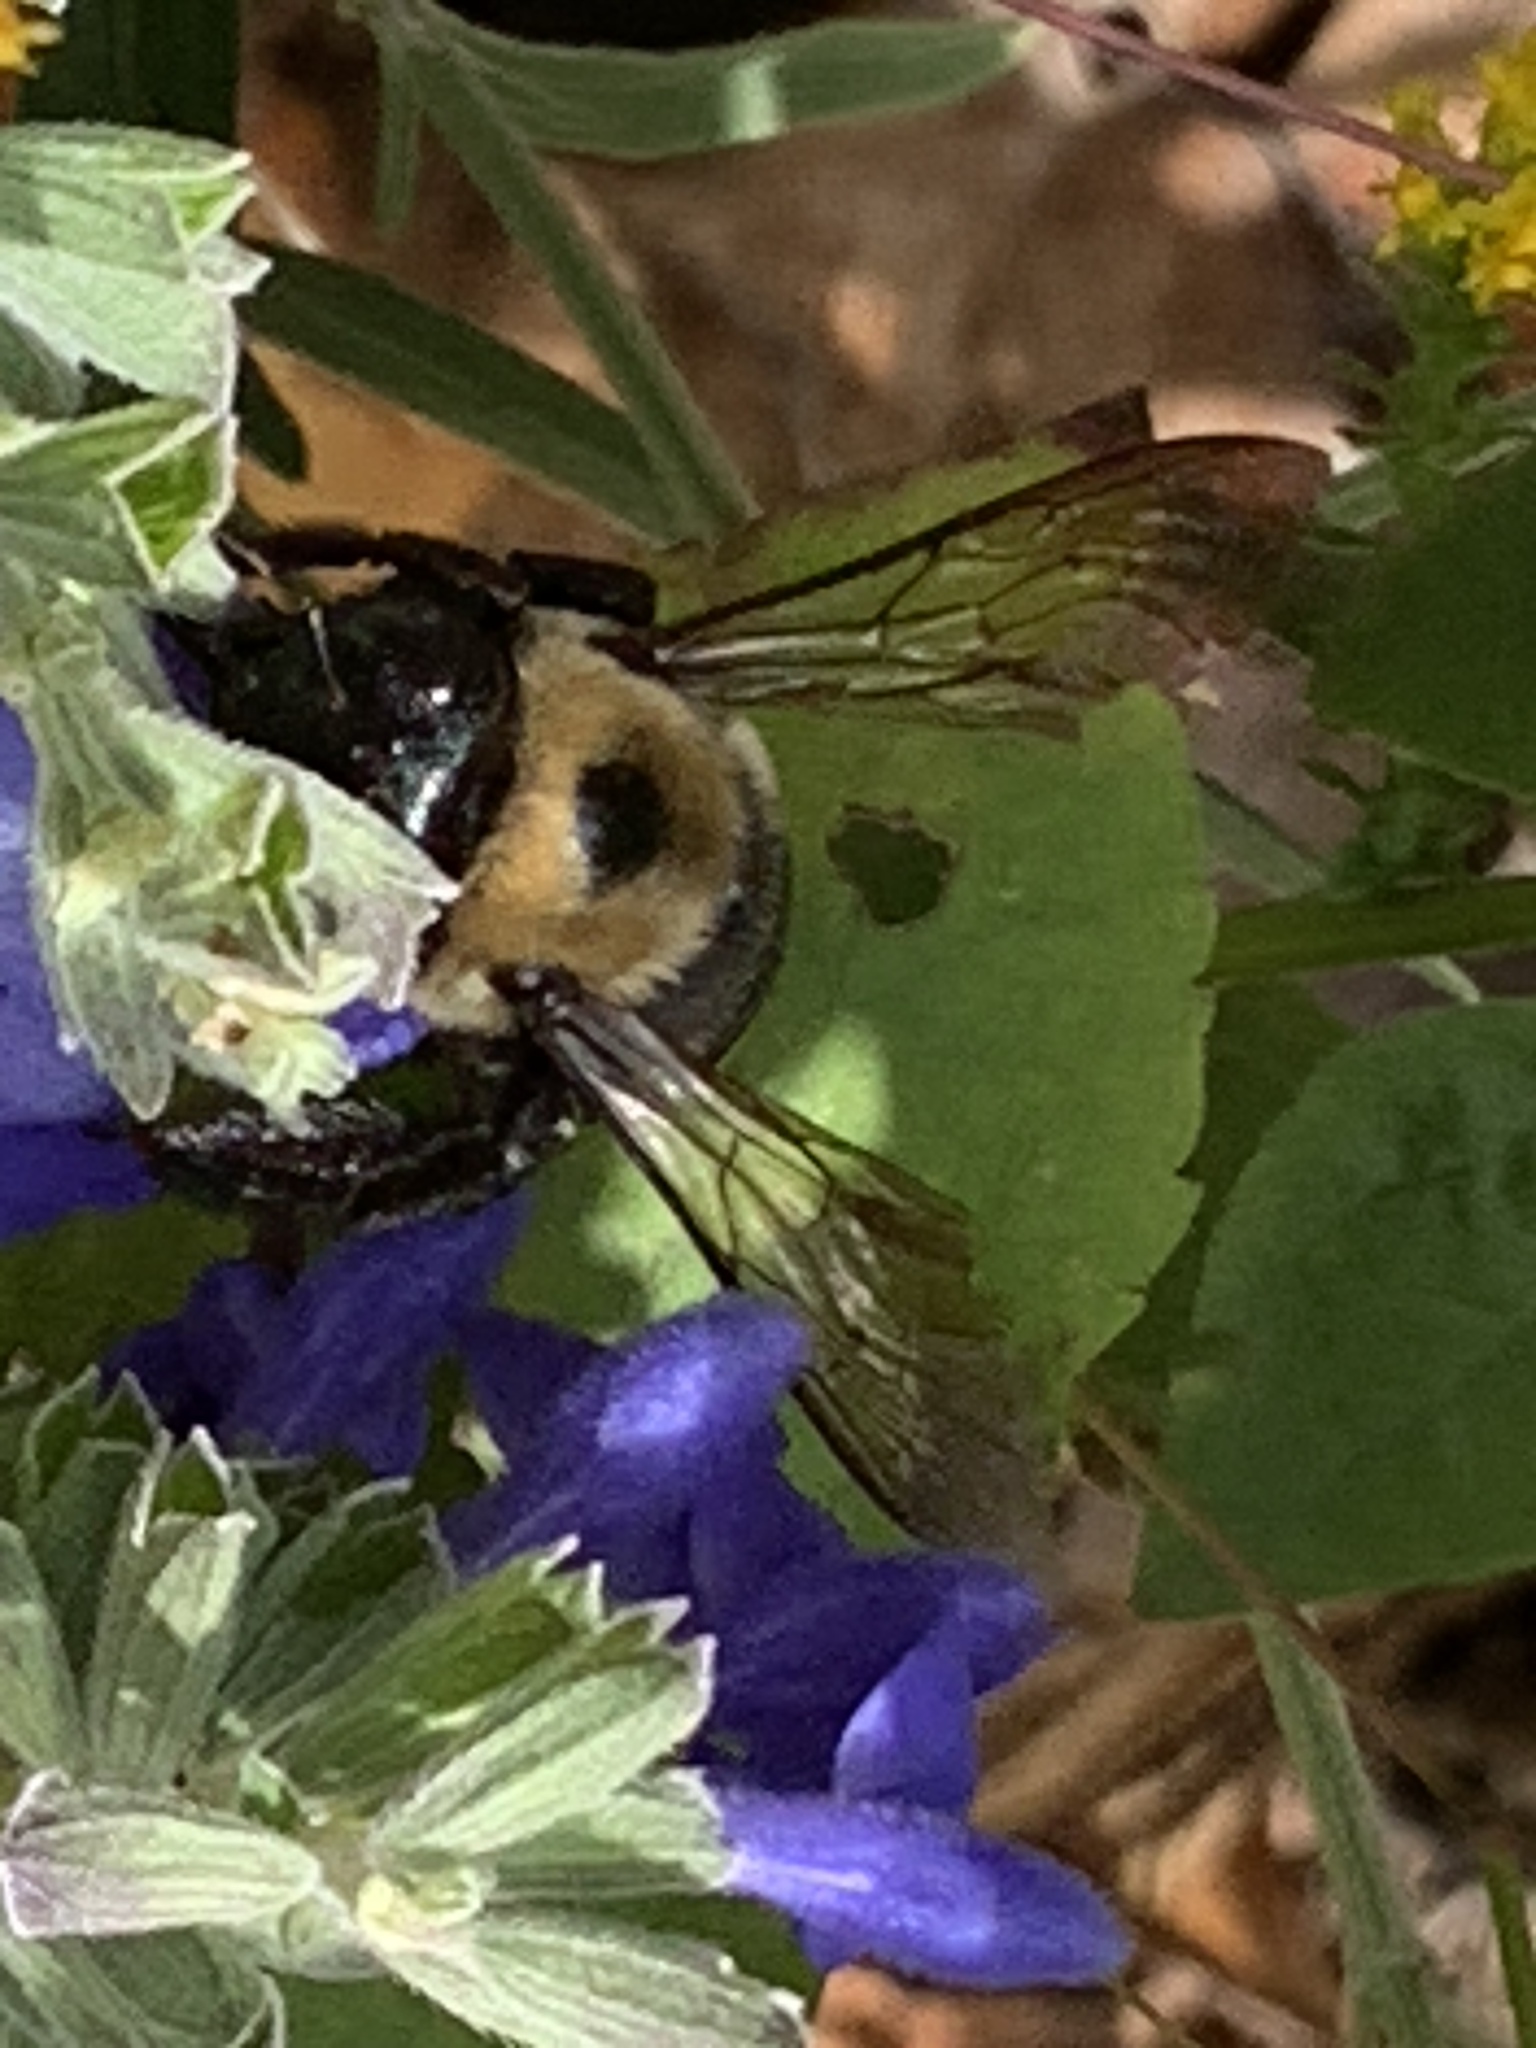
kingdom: Animalia
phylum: Arthropoda
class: Insecta
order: Hymenoptera
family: Apidae
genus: Xylocopa
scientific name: Xylocopa virginica
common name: Carpenter bee
